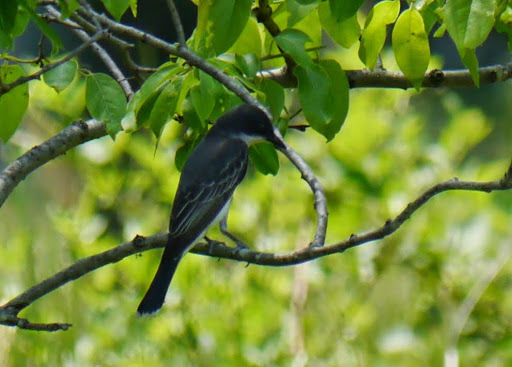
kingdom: Animalia
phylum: Chordata
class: Aves
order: Passeriformes
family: Tyrannidae
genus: Tyrannus
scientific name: Tyrannus tyrannus
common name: Eastern kingbird
